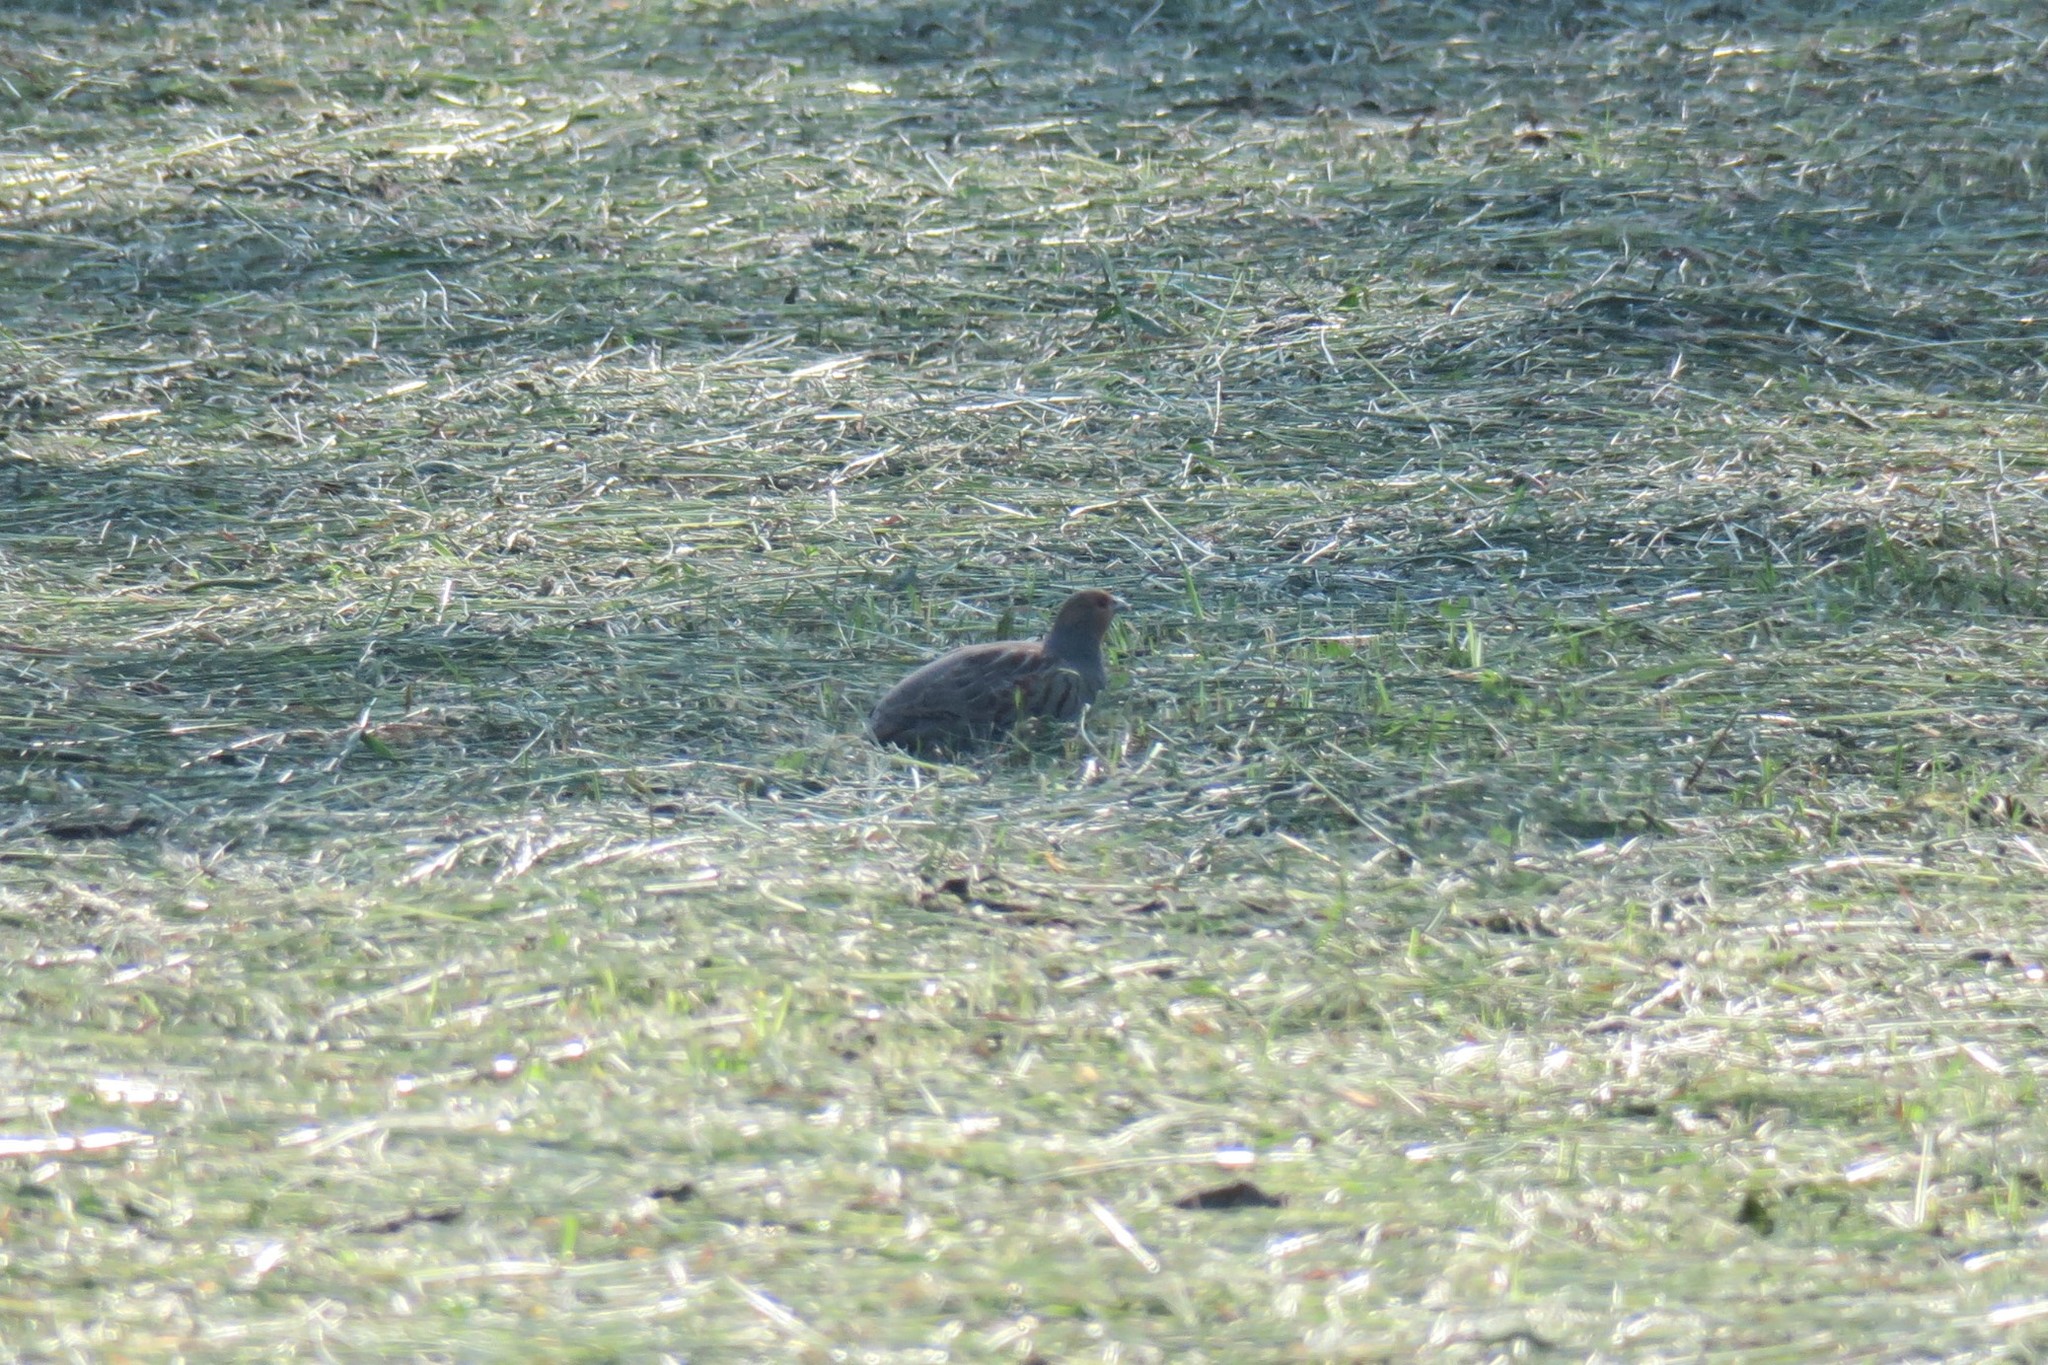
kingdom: Animalia
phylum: Chordata
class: Aves
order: Galliformes
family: Phasianidae
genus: Perdix
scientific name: Perdix perdix
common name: Grey partridge
